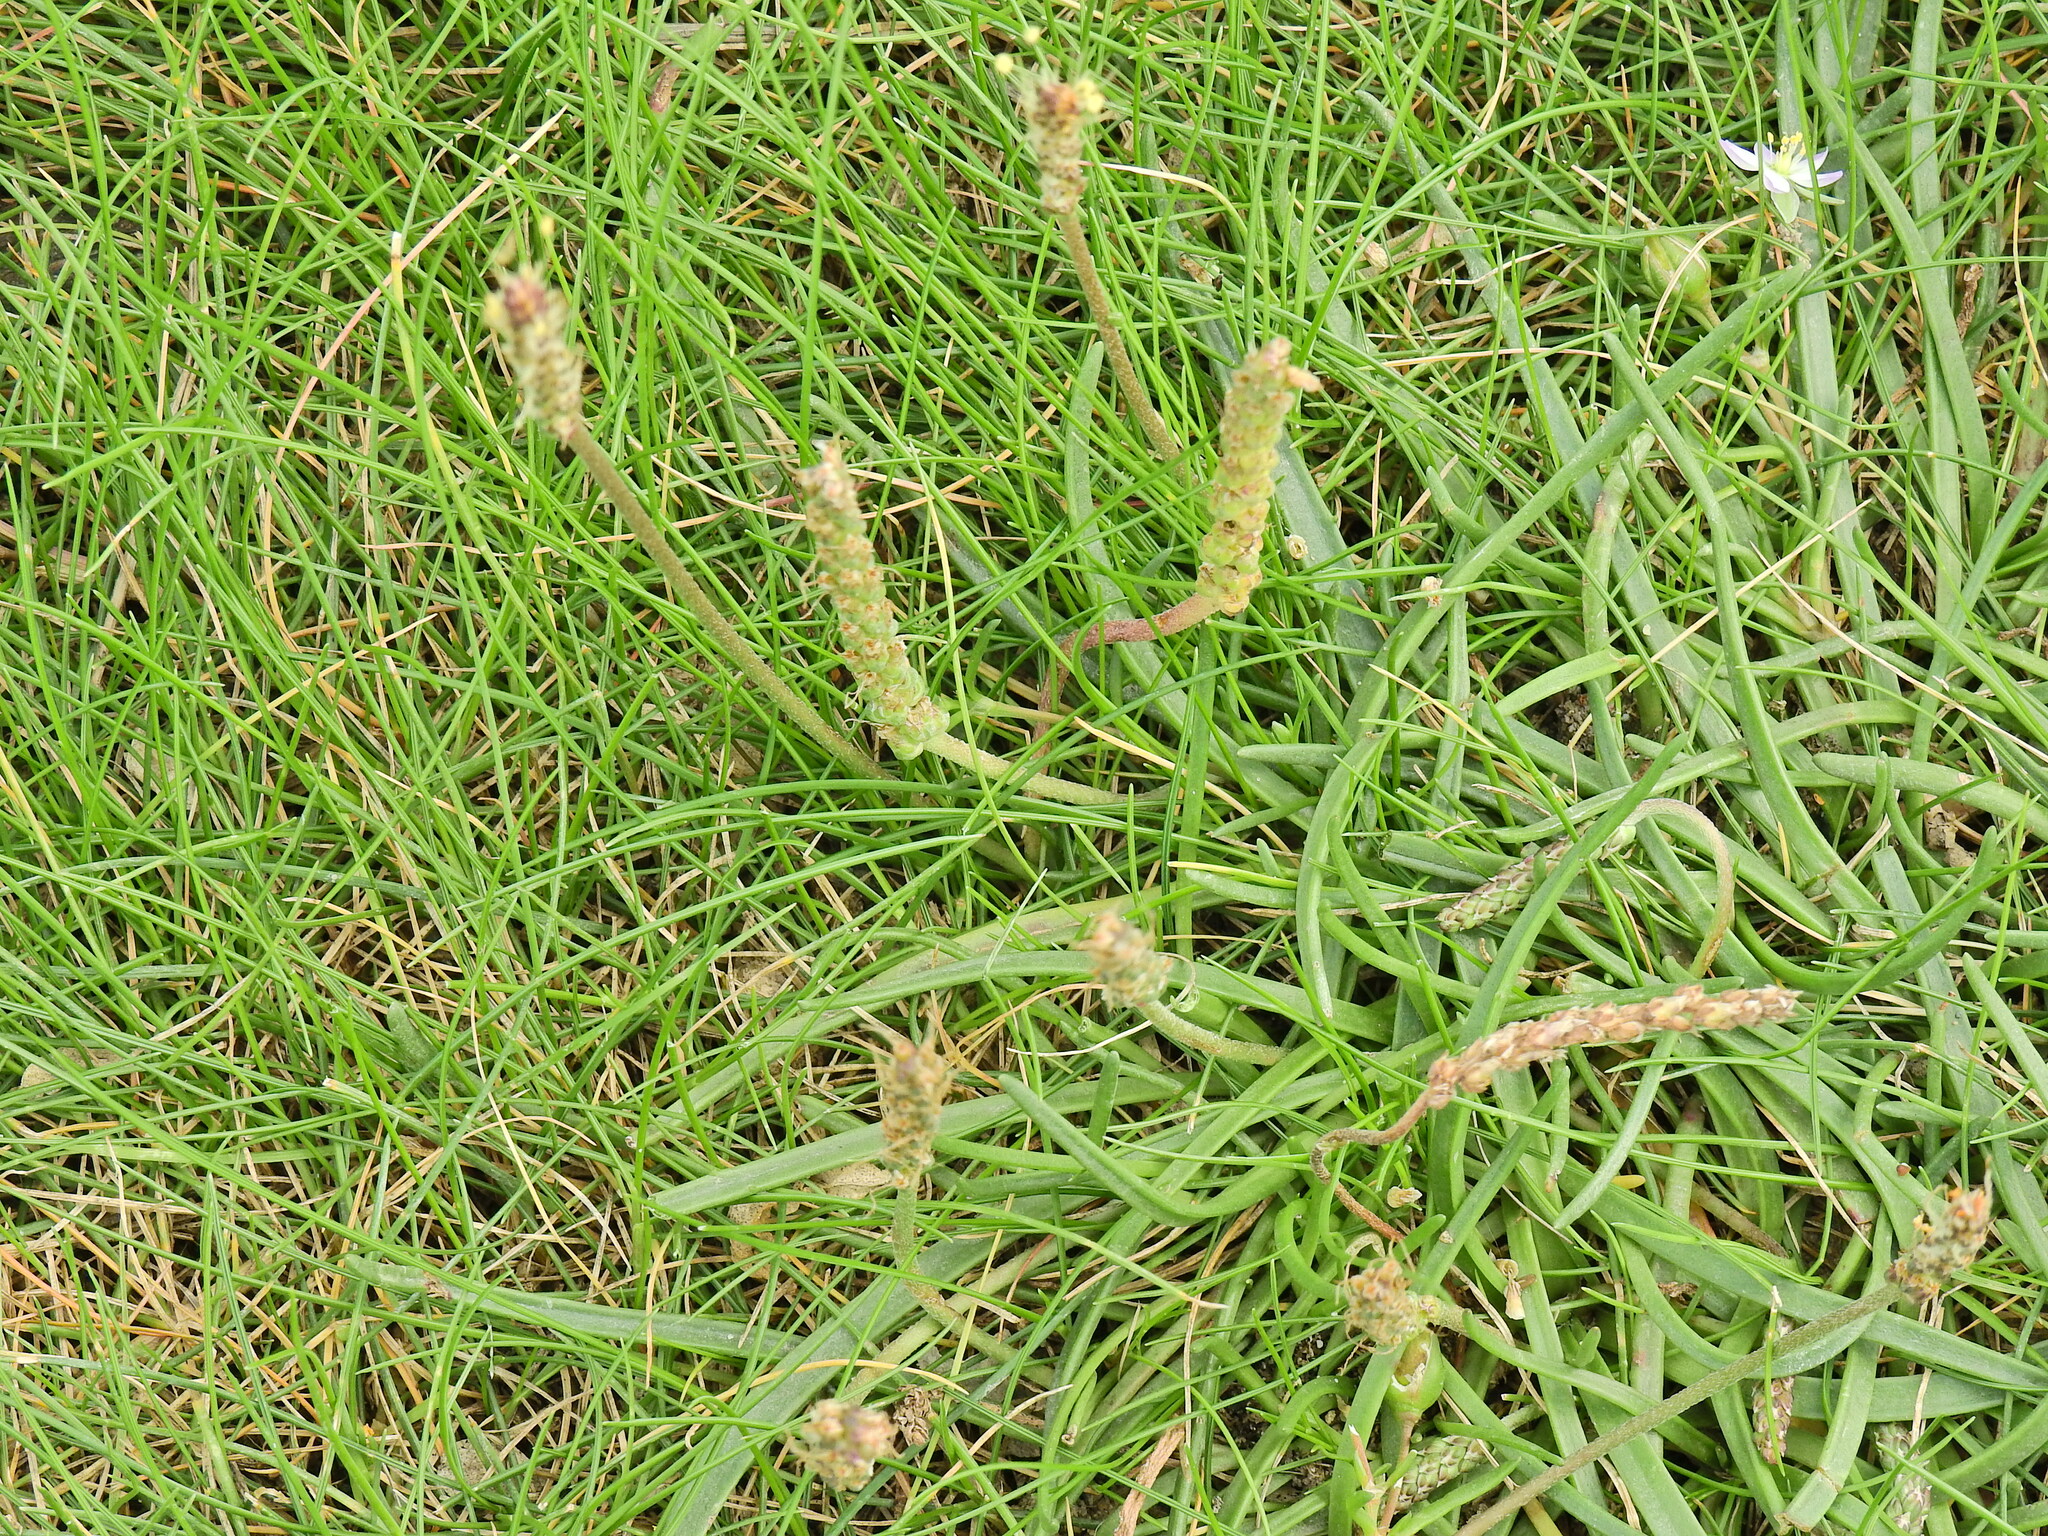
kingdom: Plantae
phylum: Tracheophyta
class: Magnoliopsida
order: Lamiales
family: Plantaginaceae
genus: Plantago
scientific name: Plantago maritima
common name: Sea plantain
